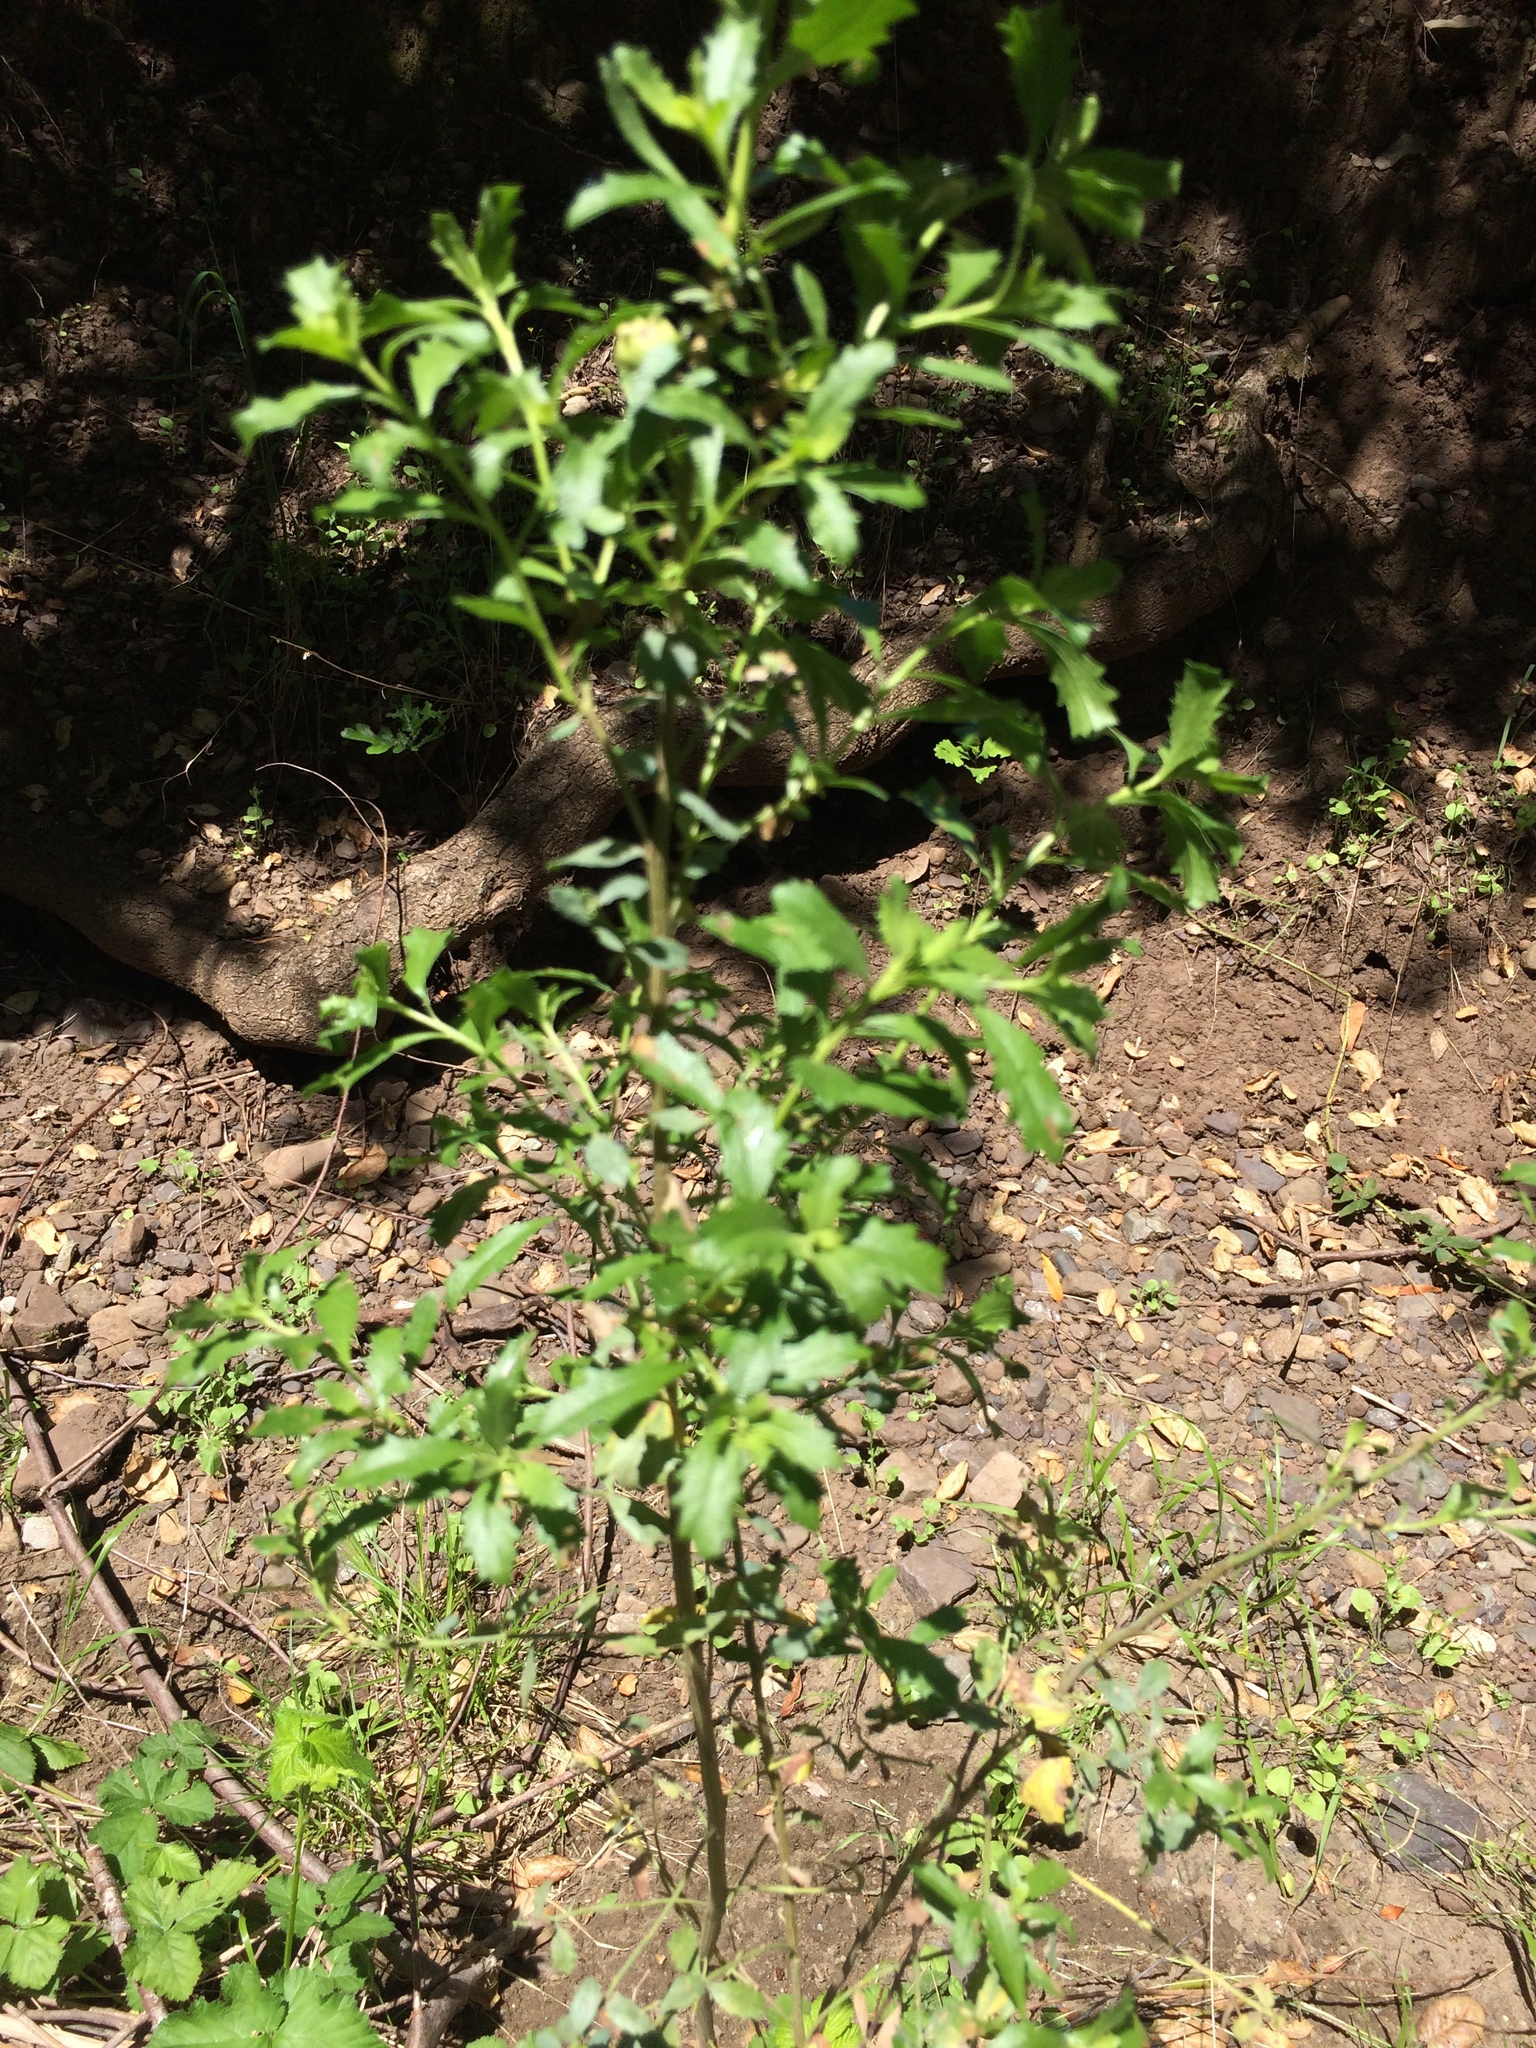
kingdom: Plantae
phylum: Tracheophyta
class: Magnoliopsida
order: Asterales
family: Asteraceae
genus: Baccharis
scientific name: Baccharis pilularis
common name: Coyotebrush
